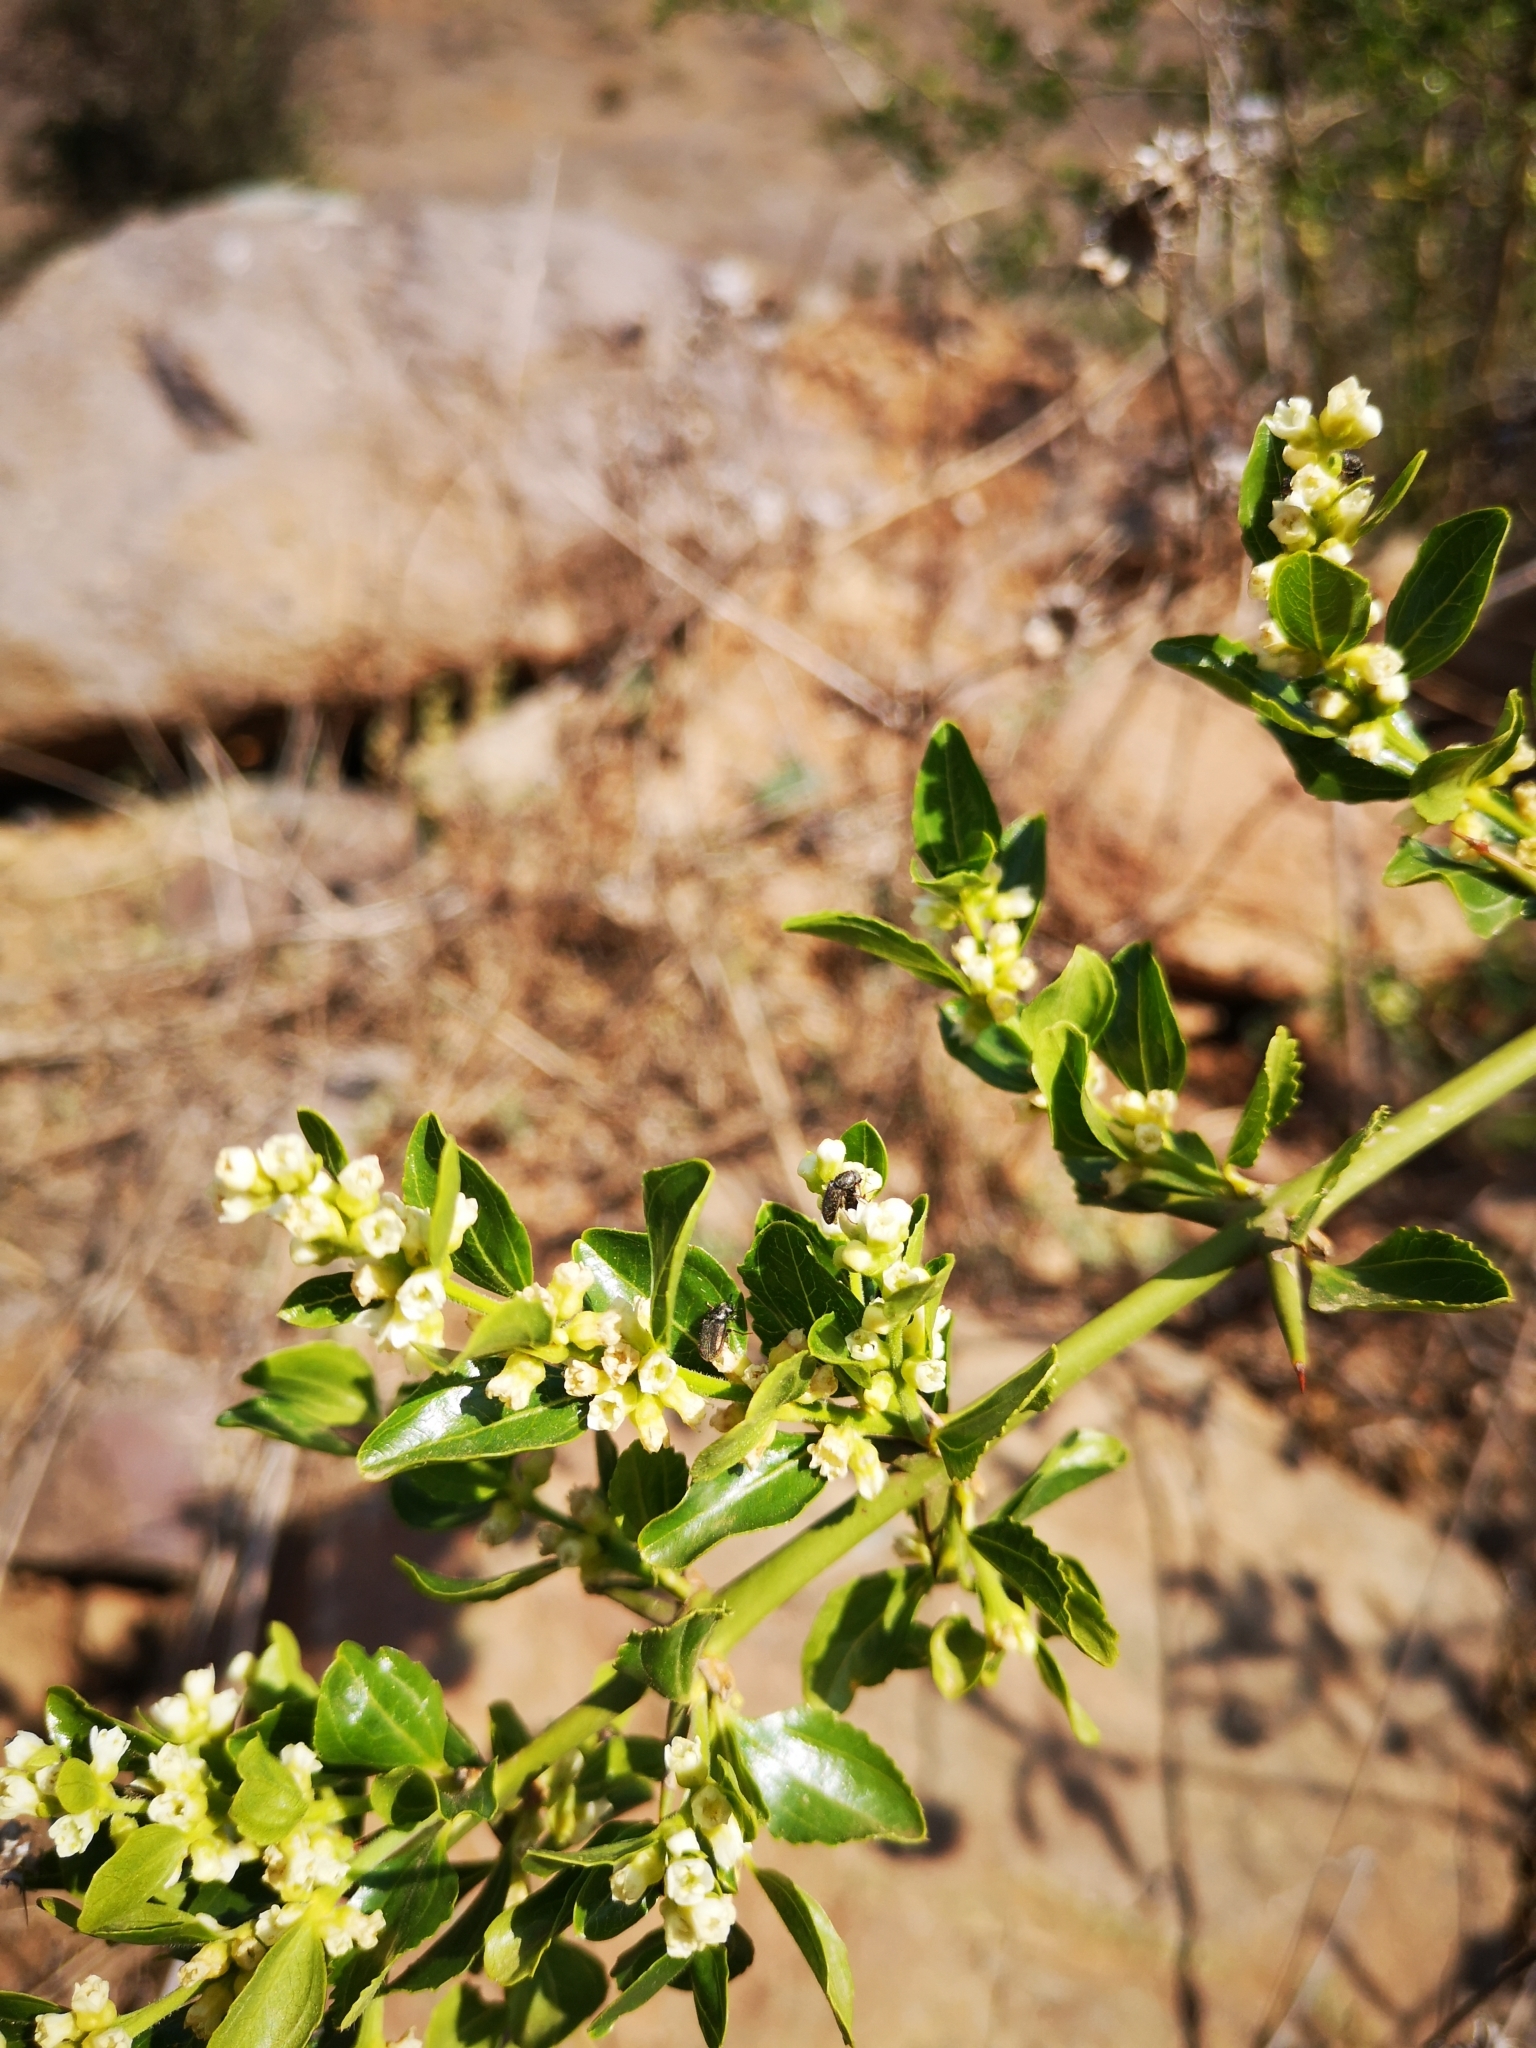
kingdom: Plantae
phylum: Tracheophyta
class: Magnoliopsida
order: Rosales
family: Rhamnaceae
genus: Retanilla
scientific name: Retanilla trinervia
